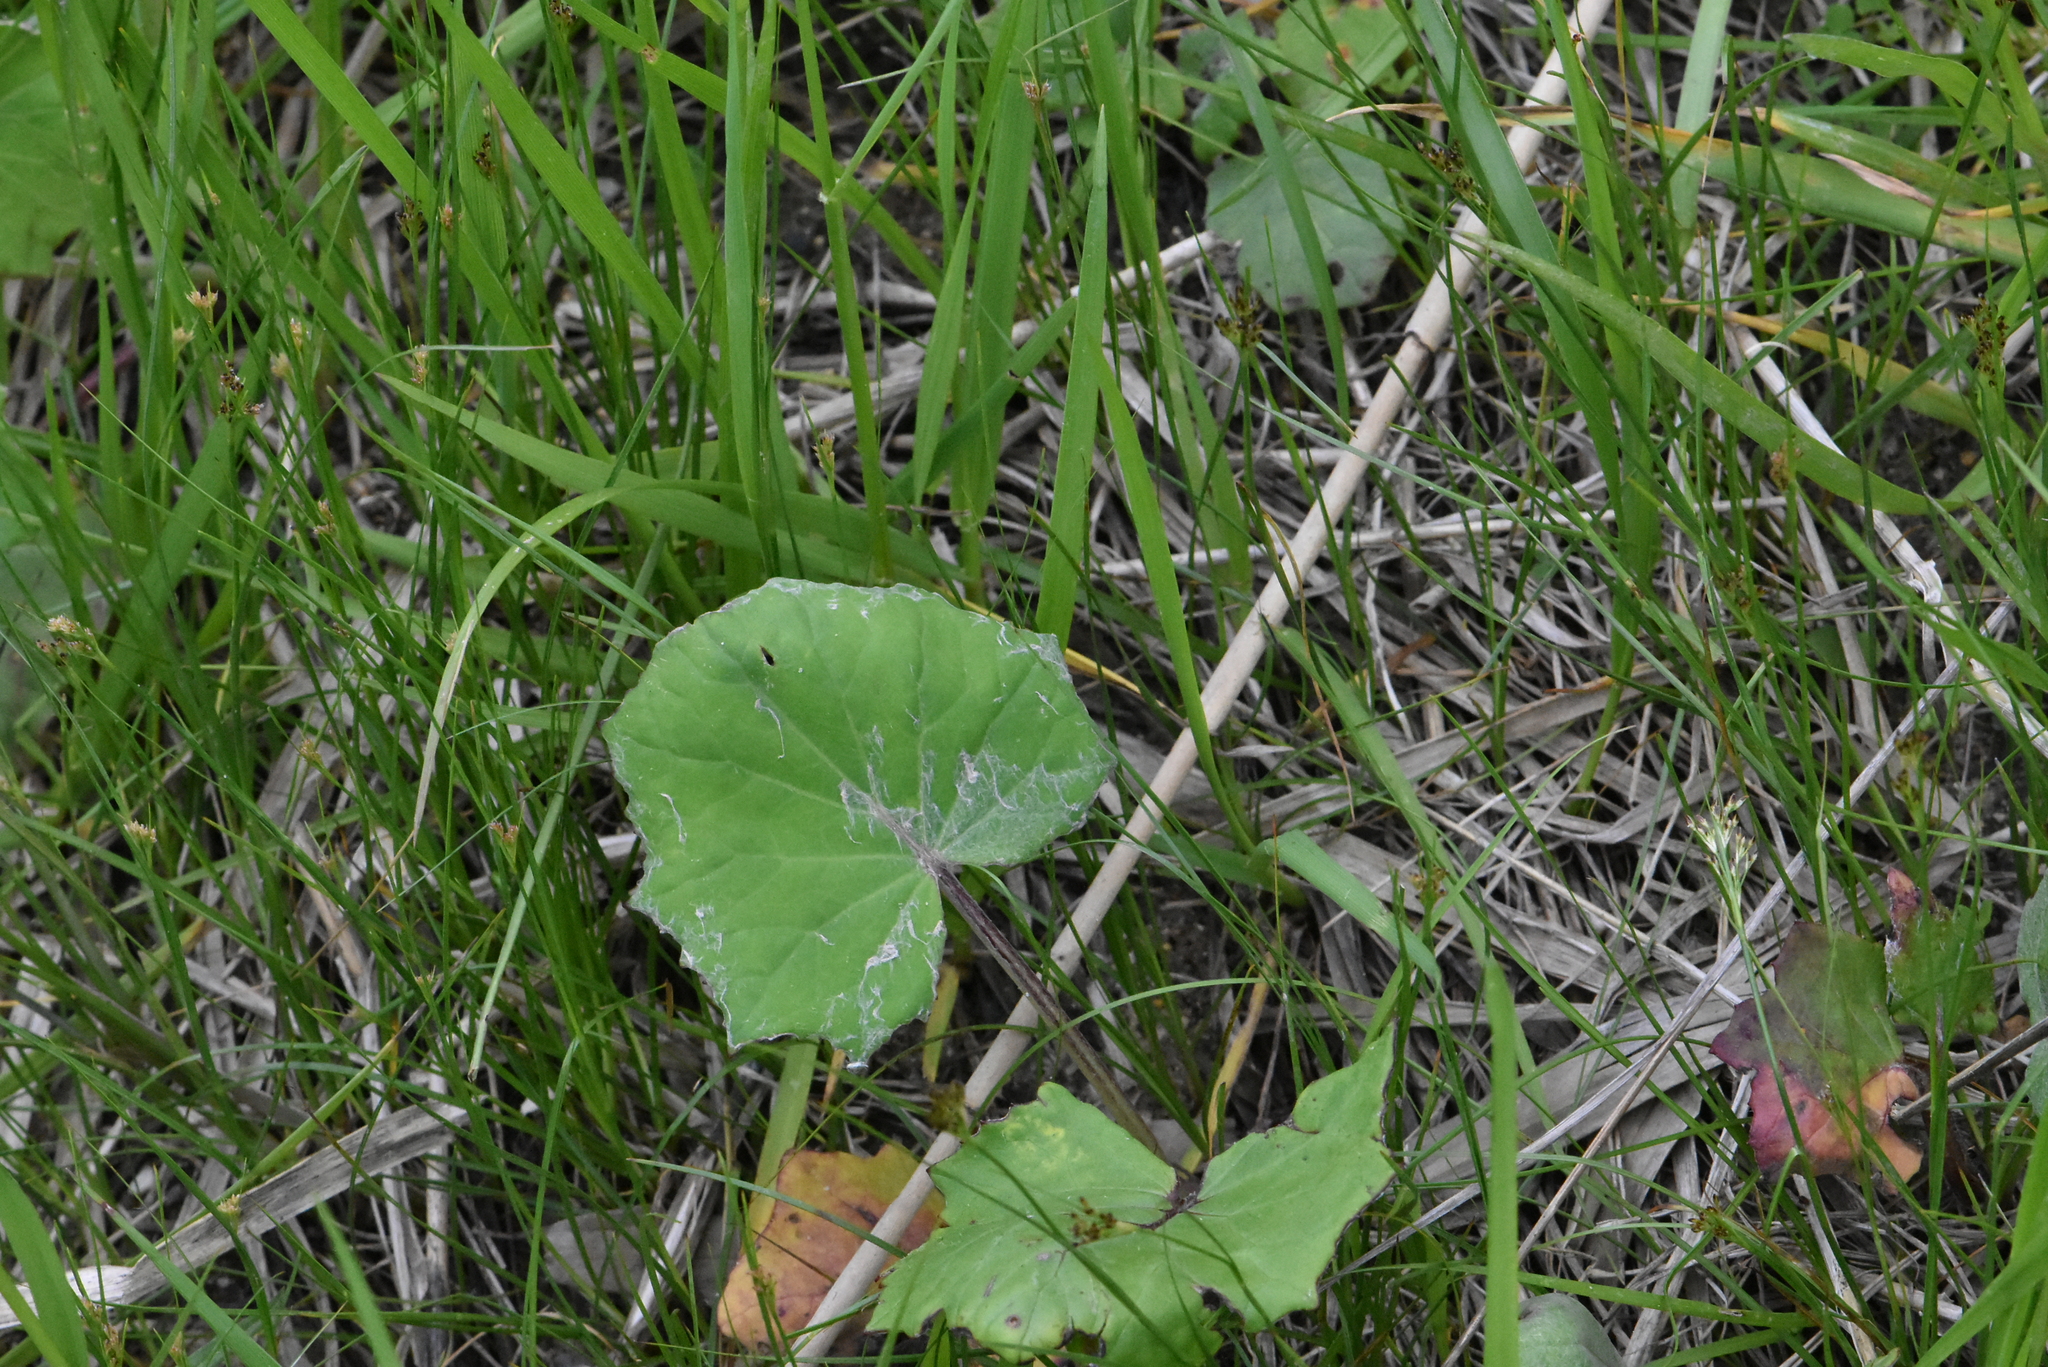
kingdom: Plantae
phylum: Tracheophyta
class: Magnoliopsida
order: Asterales
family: Asteraceae
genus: Tussilago
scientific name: Tussilago farfara
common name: Coltsfoot
